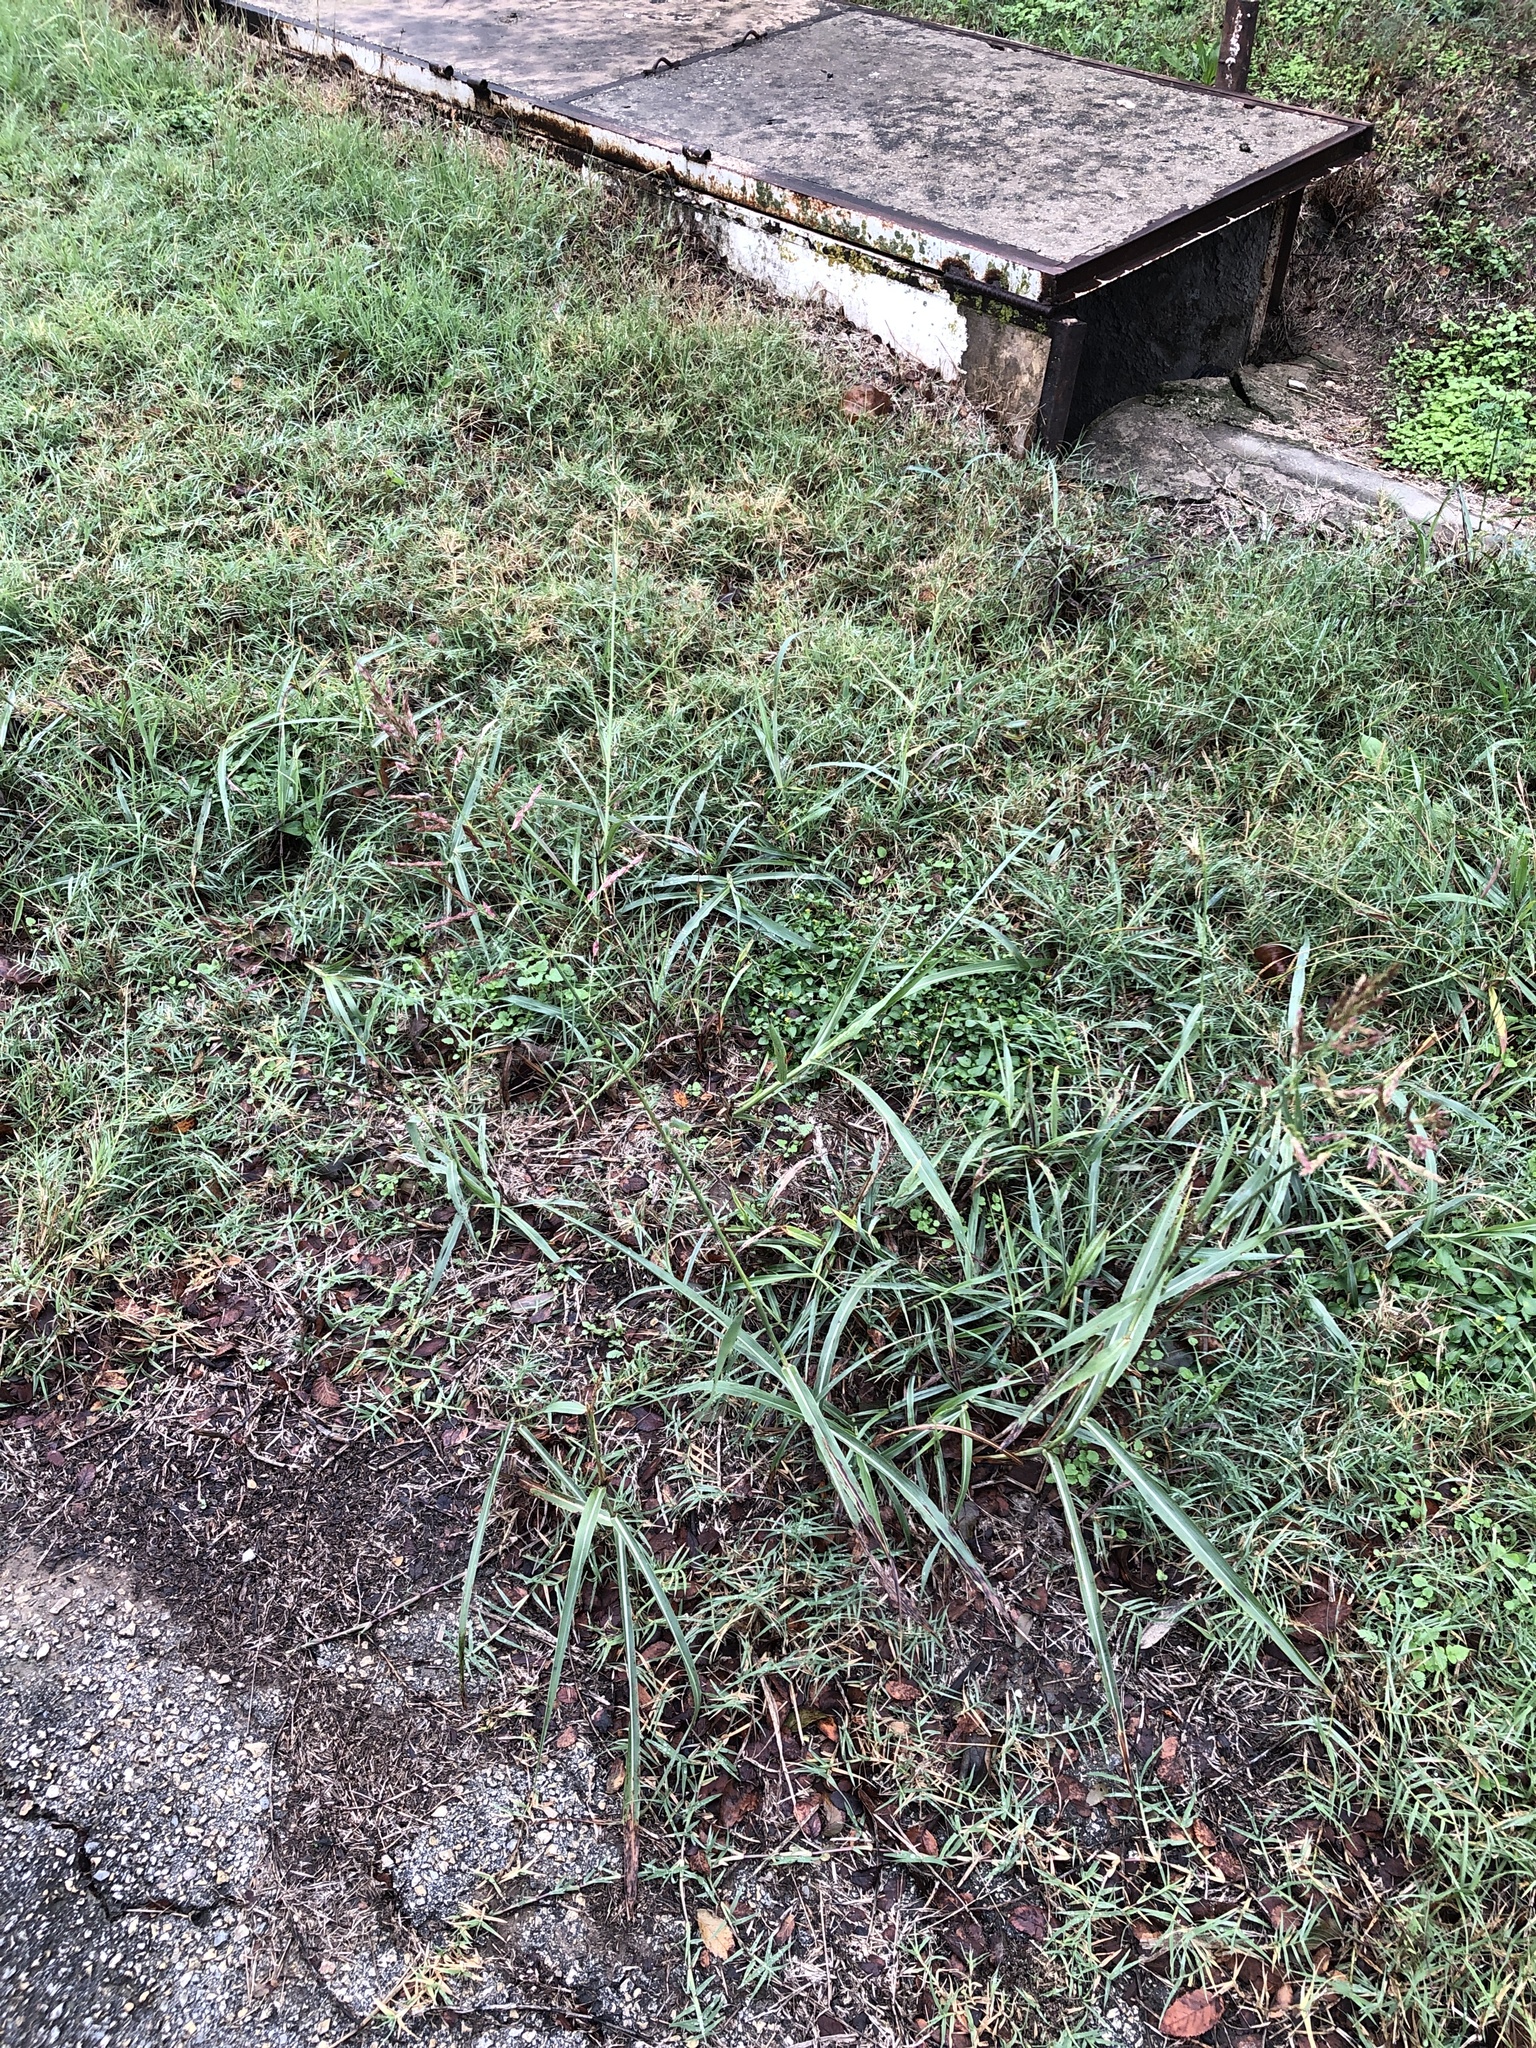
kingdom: Plantae
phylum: Tracheophyta
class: Liliopsida
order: Poales
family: Poaceae
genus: Sorghum
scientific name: Sorghum halepense
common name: Johnson-grass
